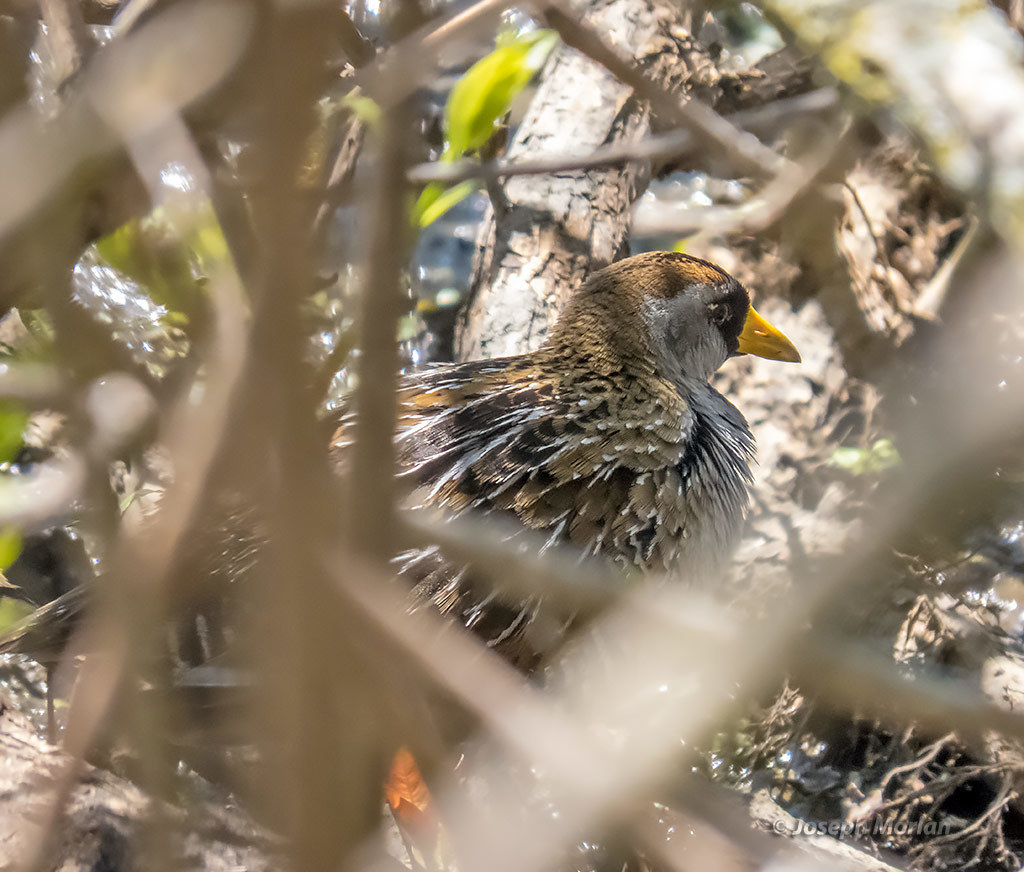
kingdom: Animalia
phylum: Chordata
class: Aves
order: Gruiformes
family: Rallidae
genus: Porzana
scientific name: Porzana carolina
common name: Sora
